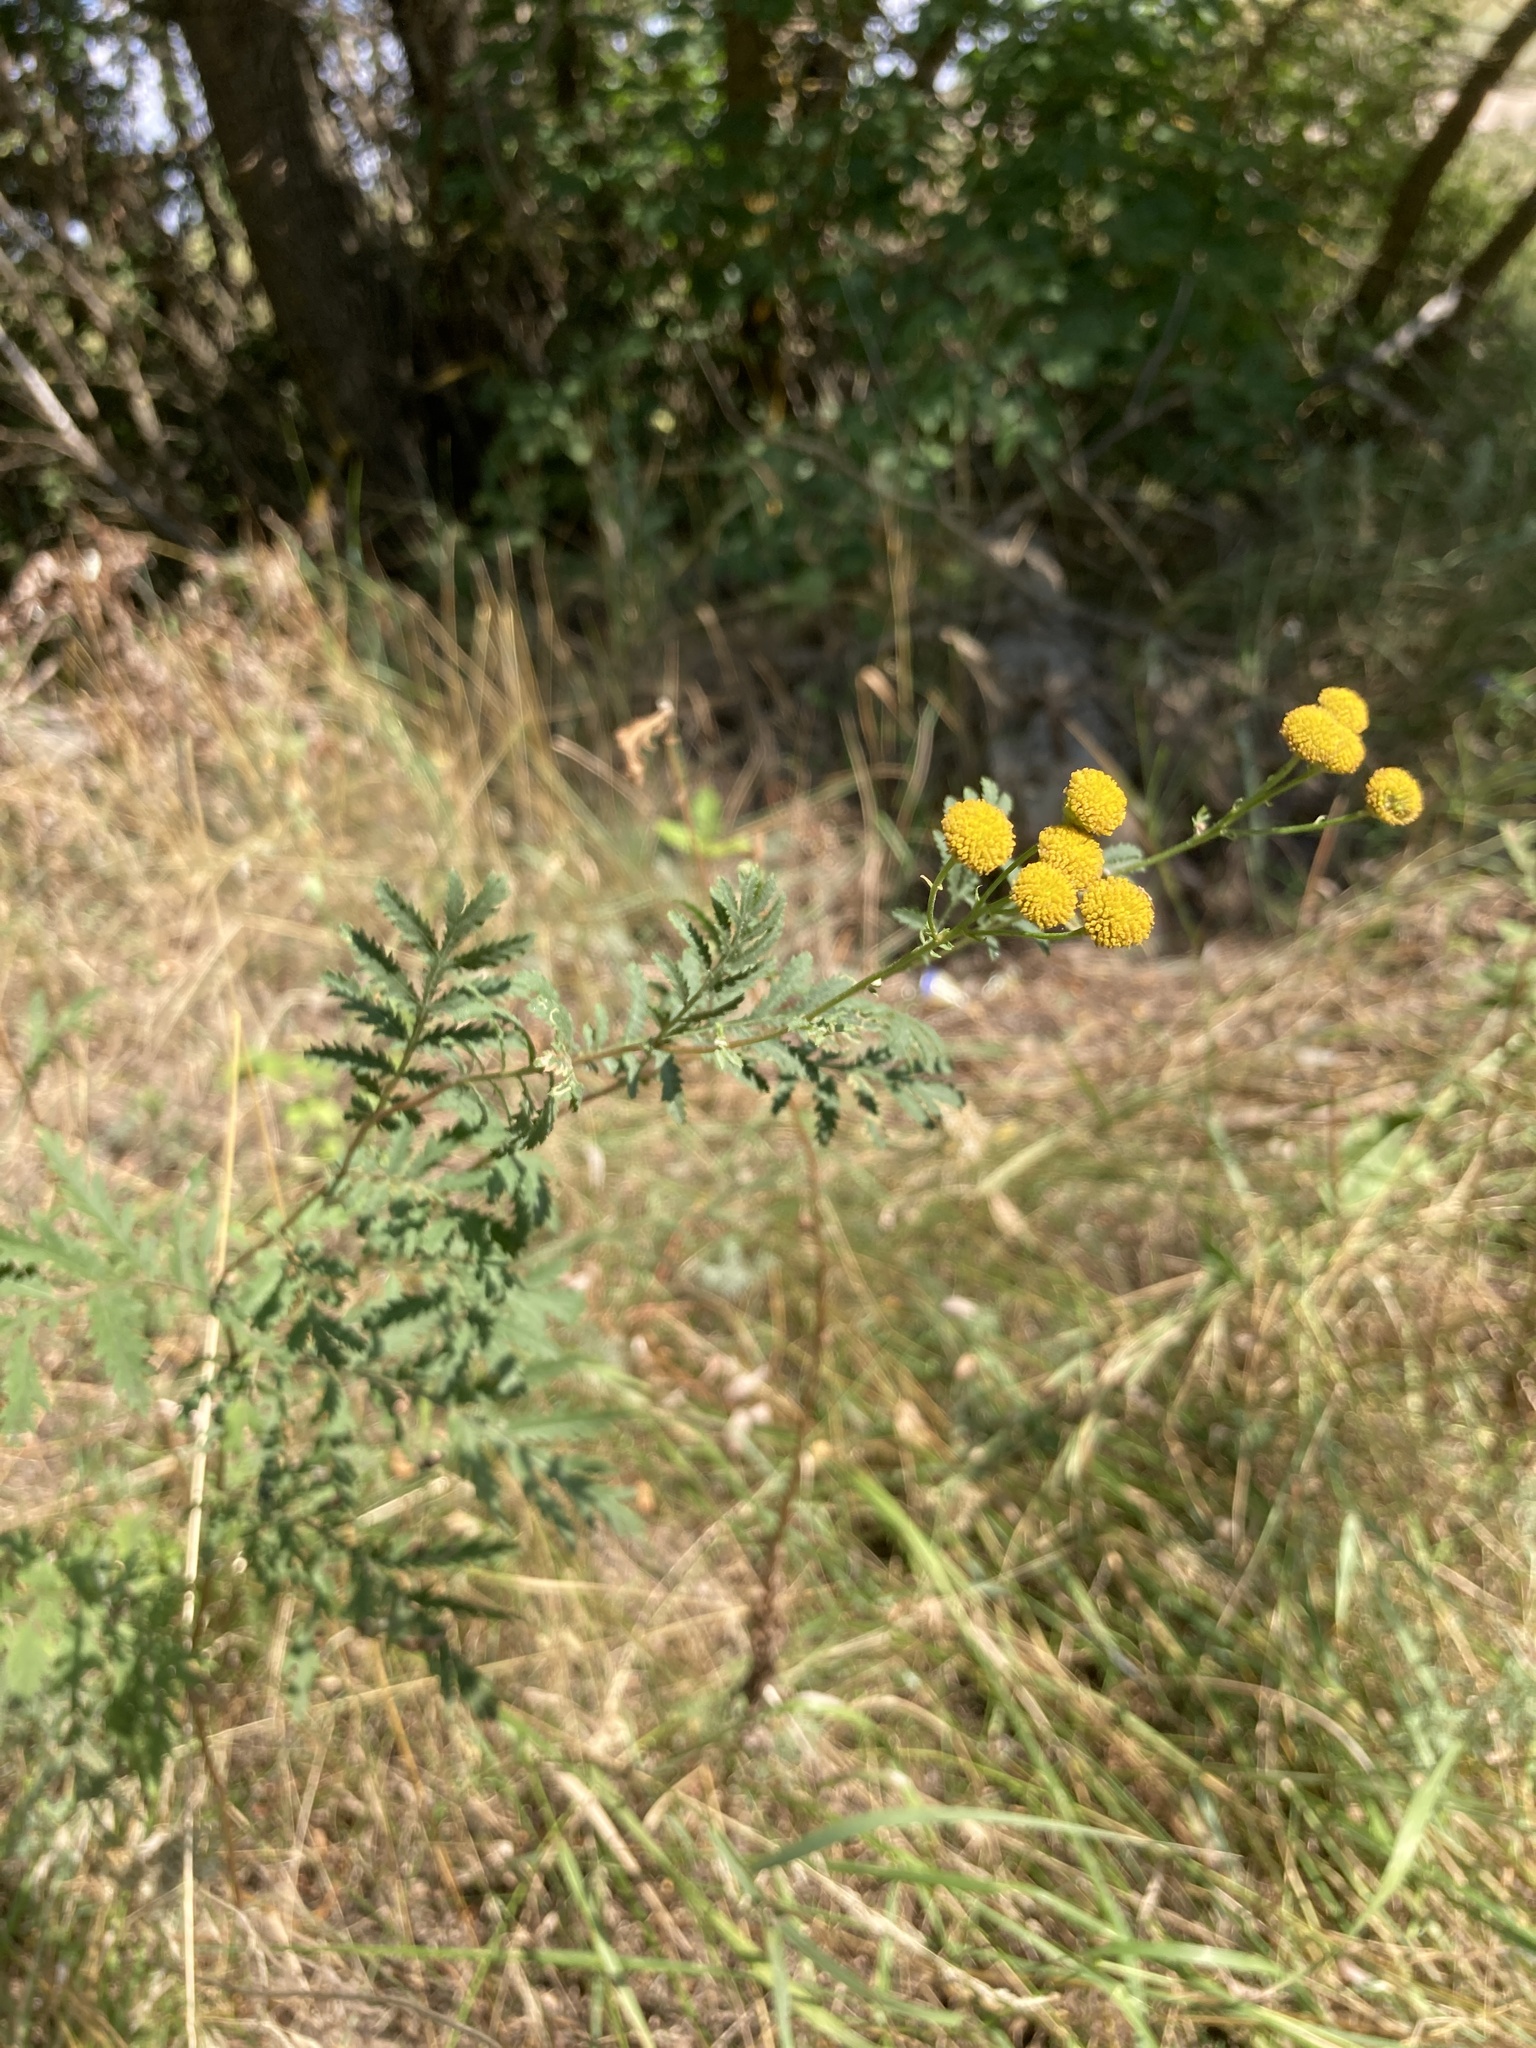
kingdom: Plantae
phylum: Tracheophyta
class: Magnoliopsida
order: Asterales
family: Asteraceae
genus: Tanacetum
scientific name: Tanacetum vulgare
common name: Common tansy
